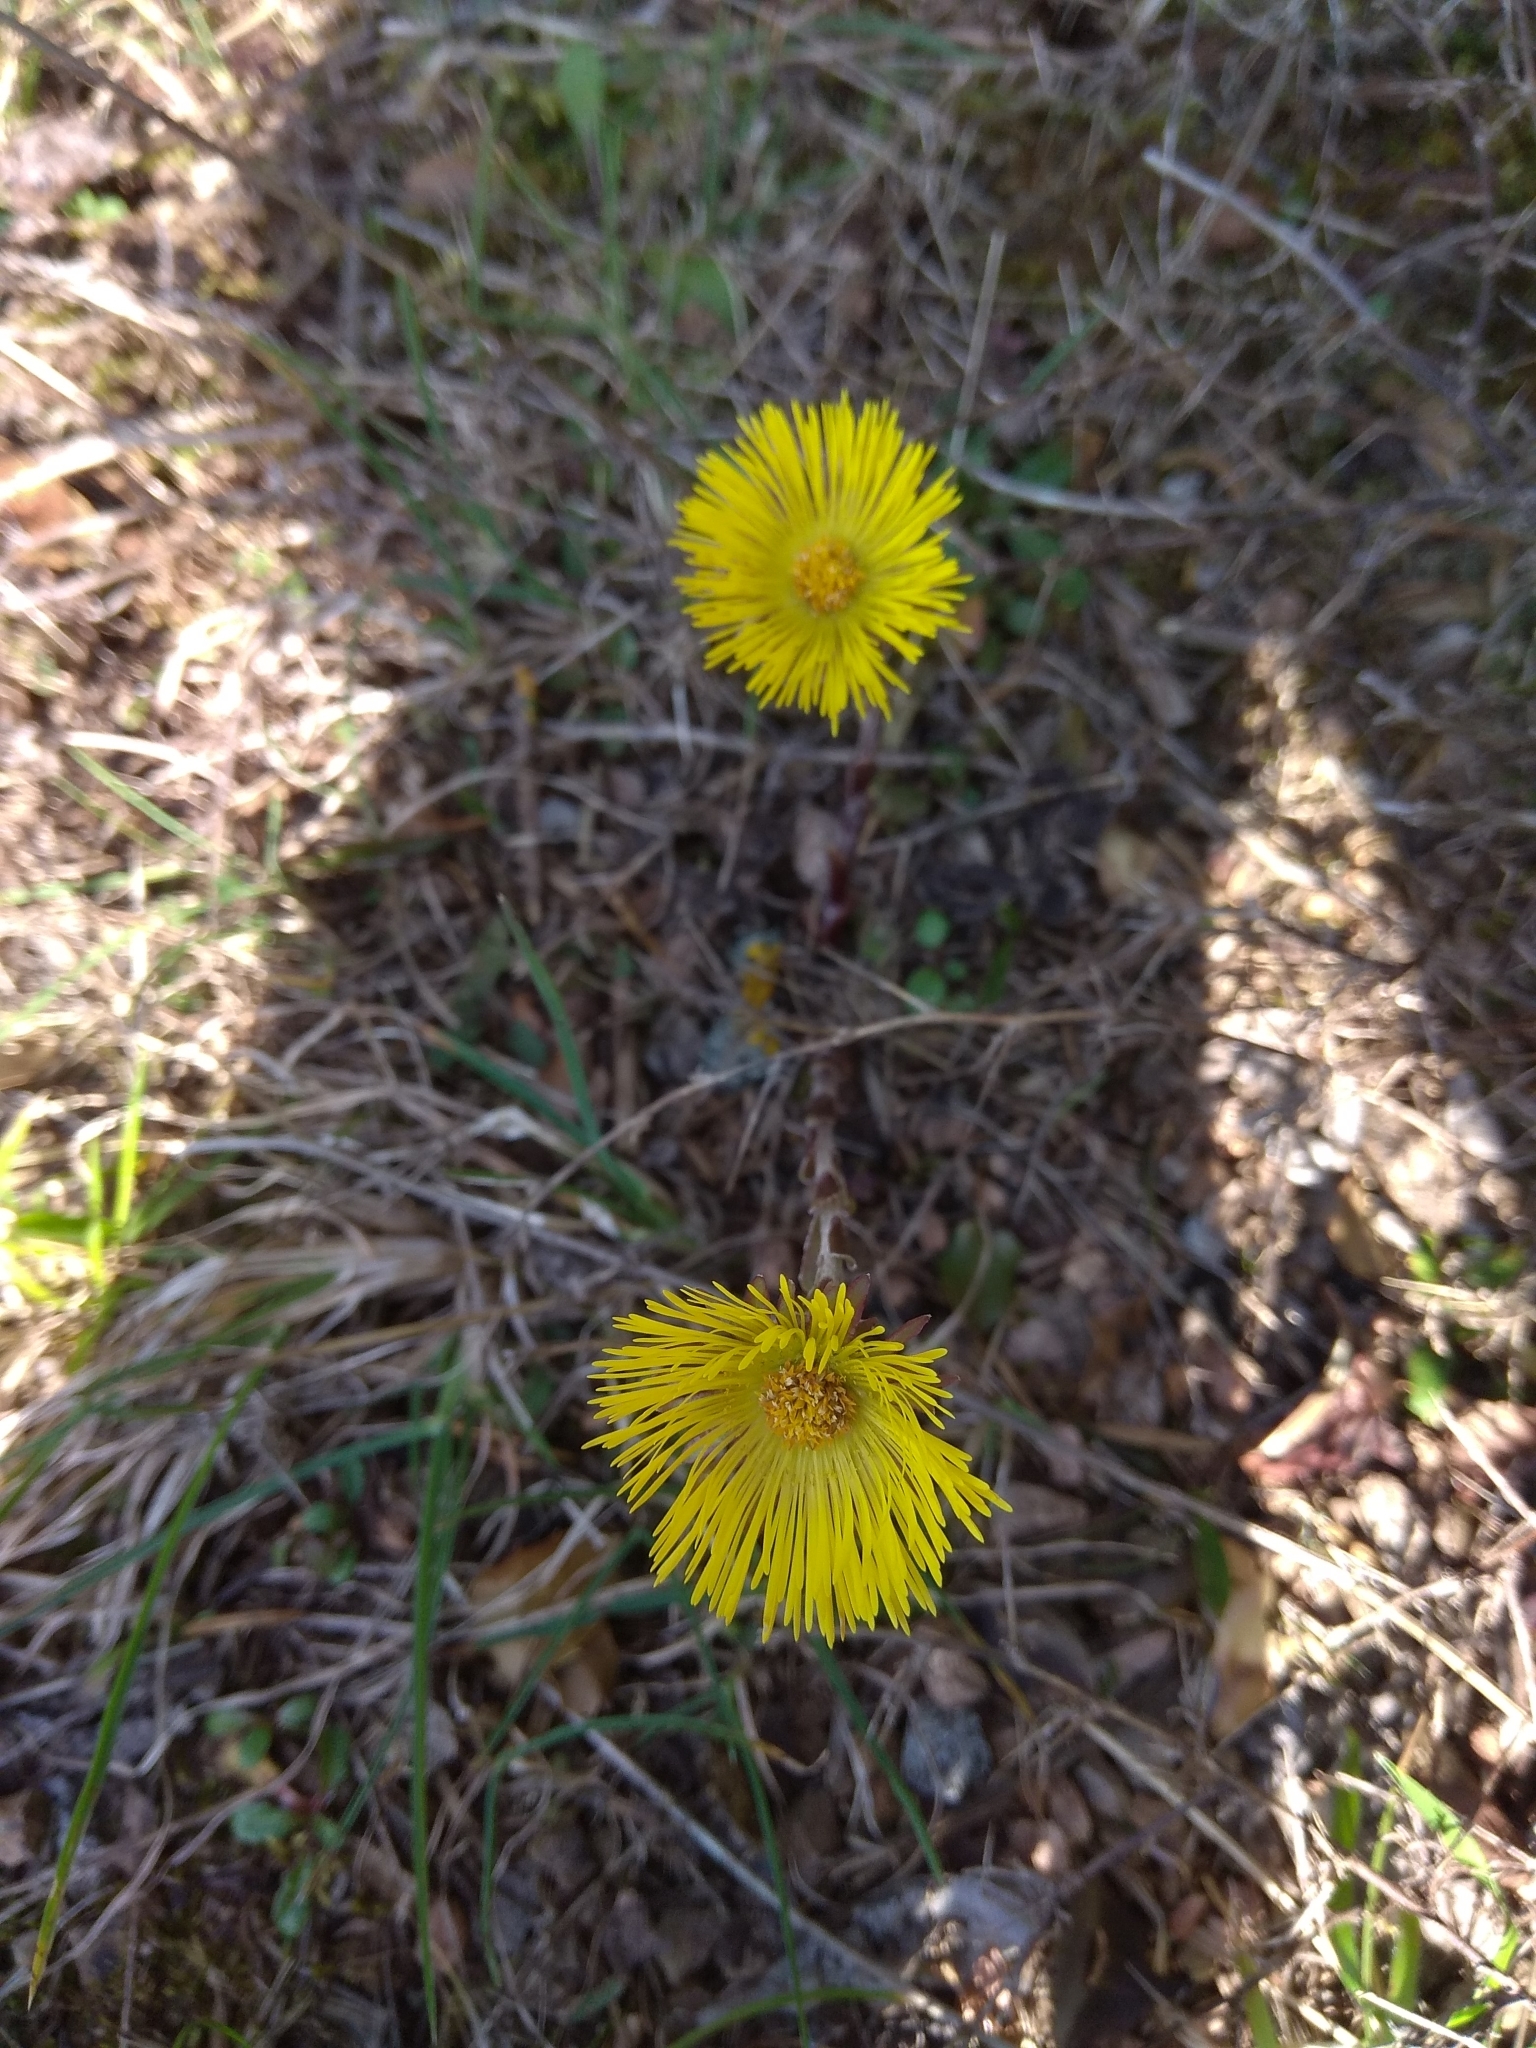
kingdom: Plantae
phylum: Tracheophyta
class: Magnoliopsida
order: Asterales
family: Asteraceae
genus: Tussilago
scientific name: Tussilago farfara
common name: Coltsfoot
